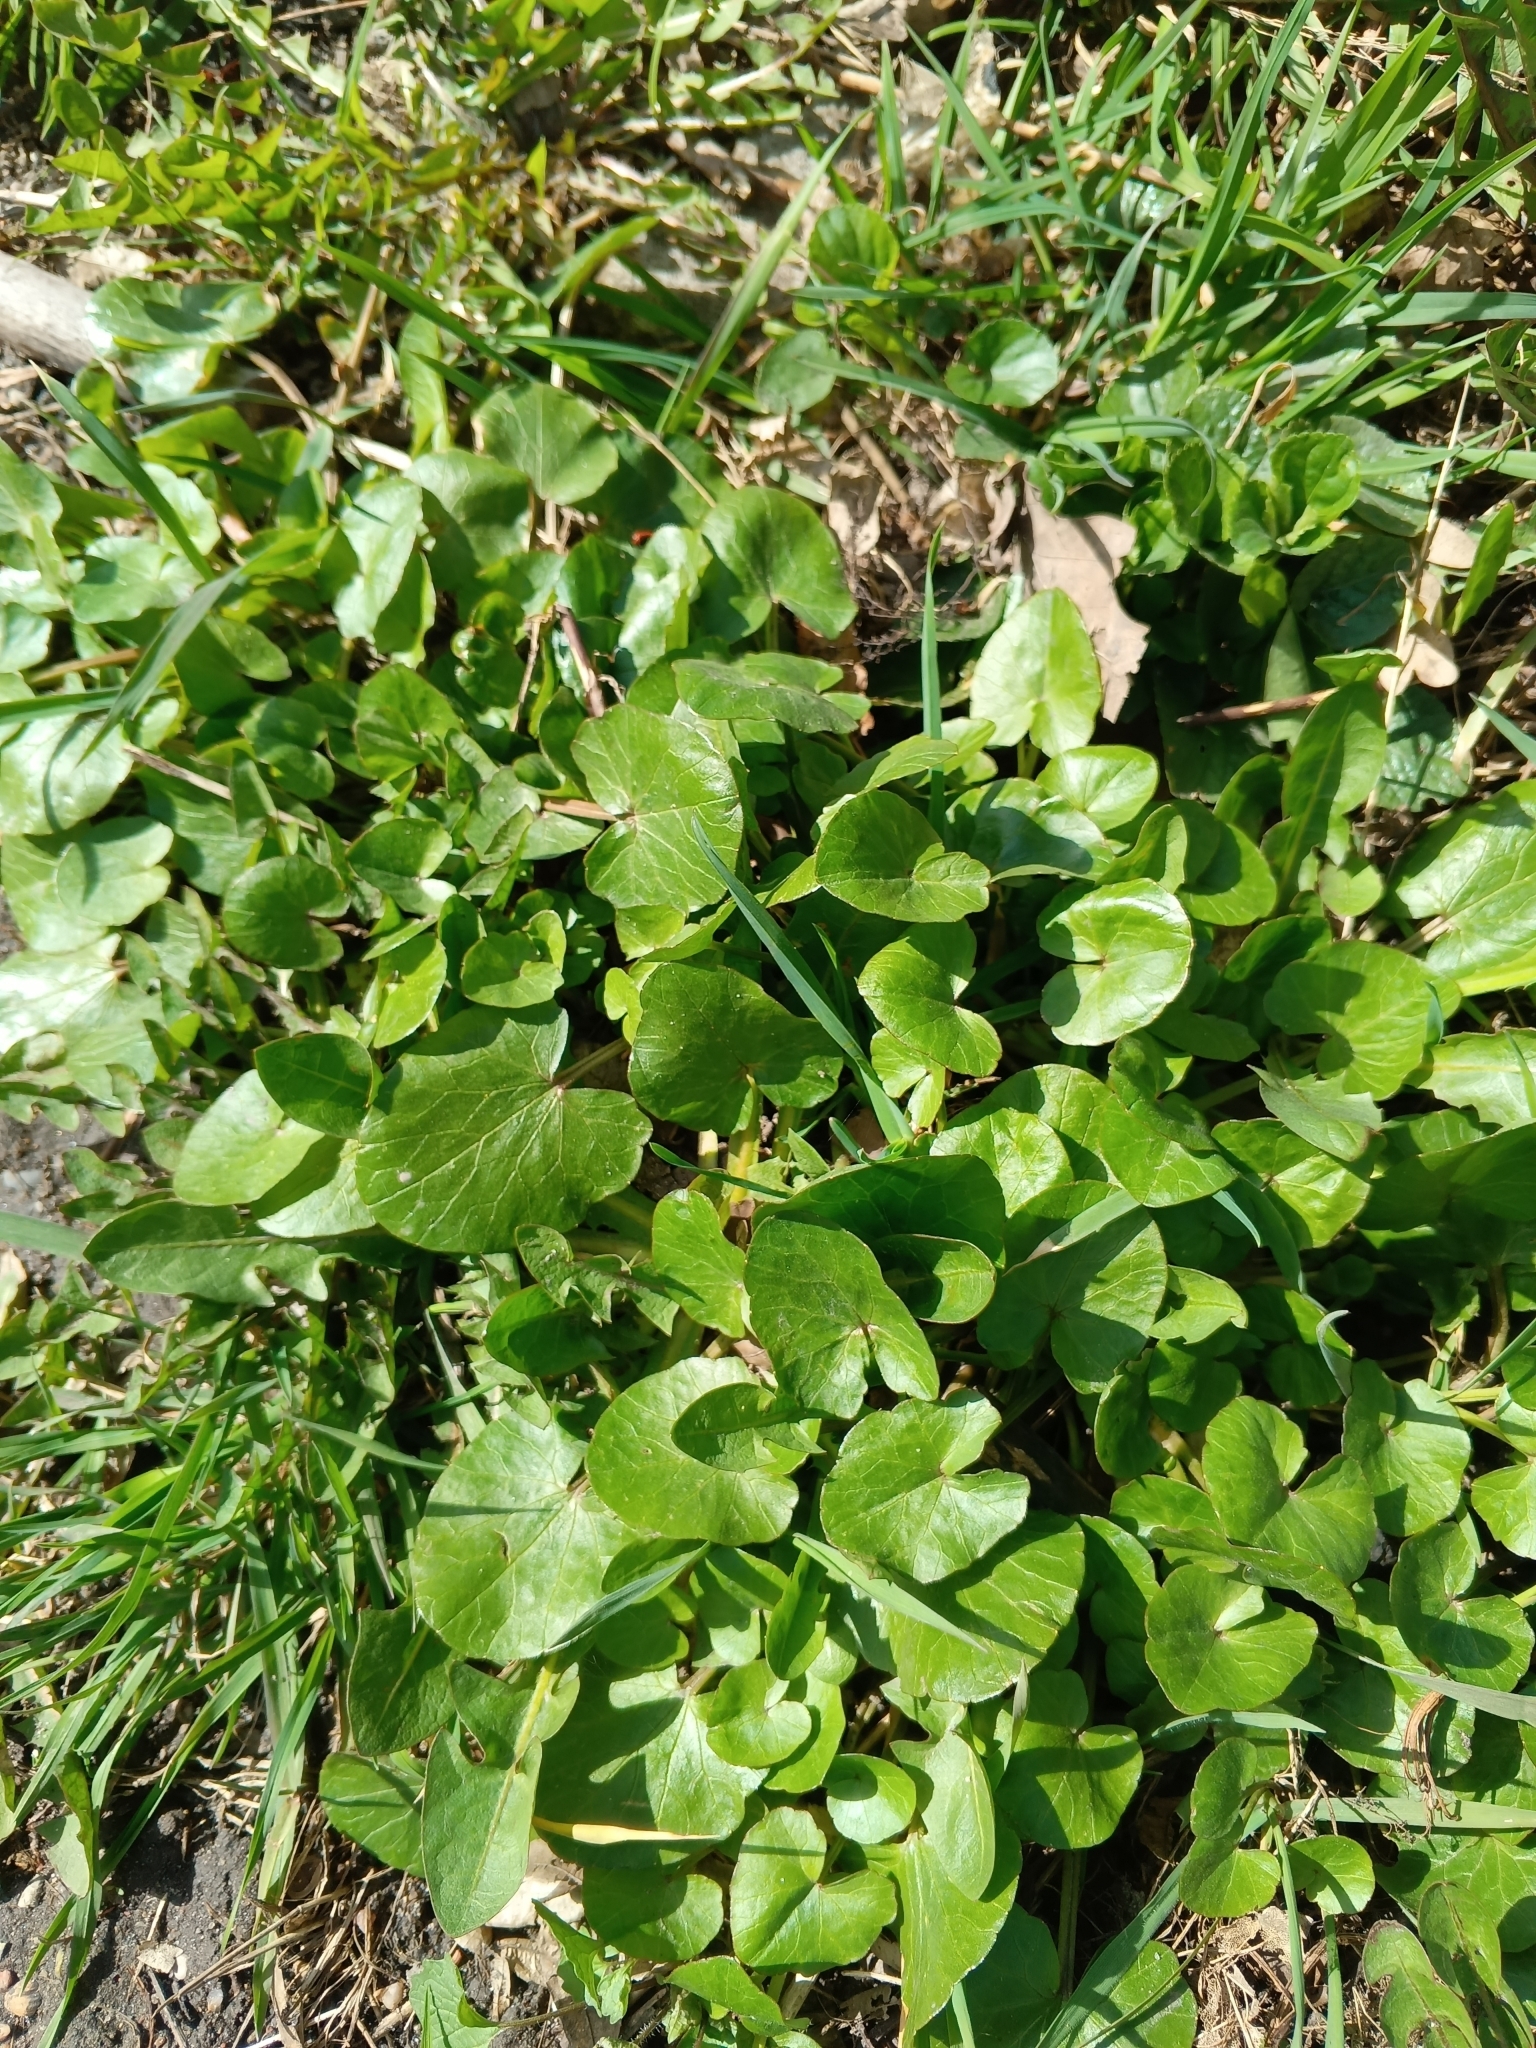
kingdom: Plantae
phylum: Tracheophyta
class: Magnoliopsida
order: Ranunculales
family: Ranunculaceae
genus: Ficaria
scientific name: Ficaria verna
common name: Lesser celandine
